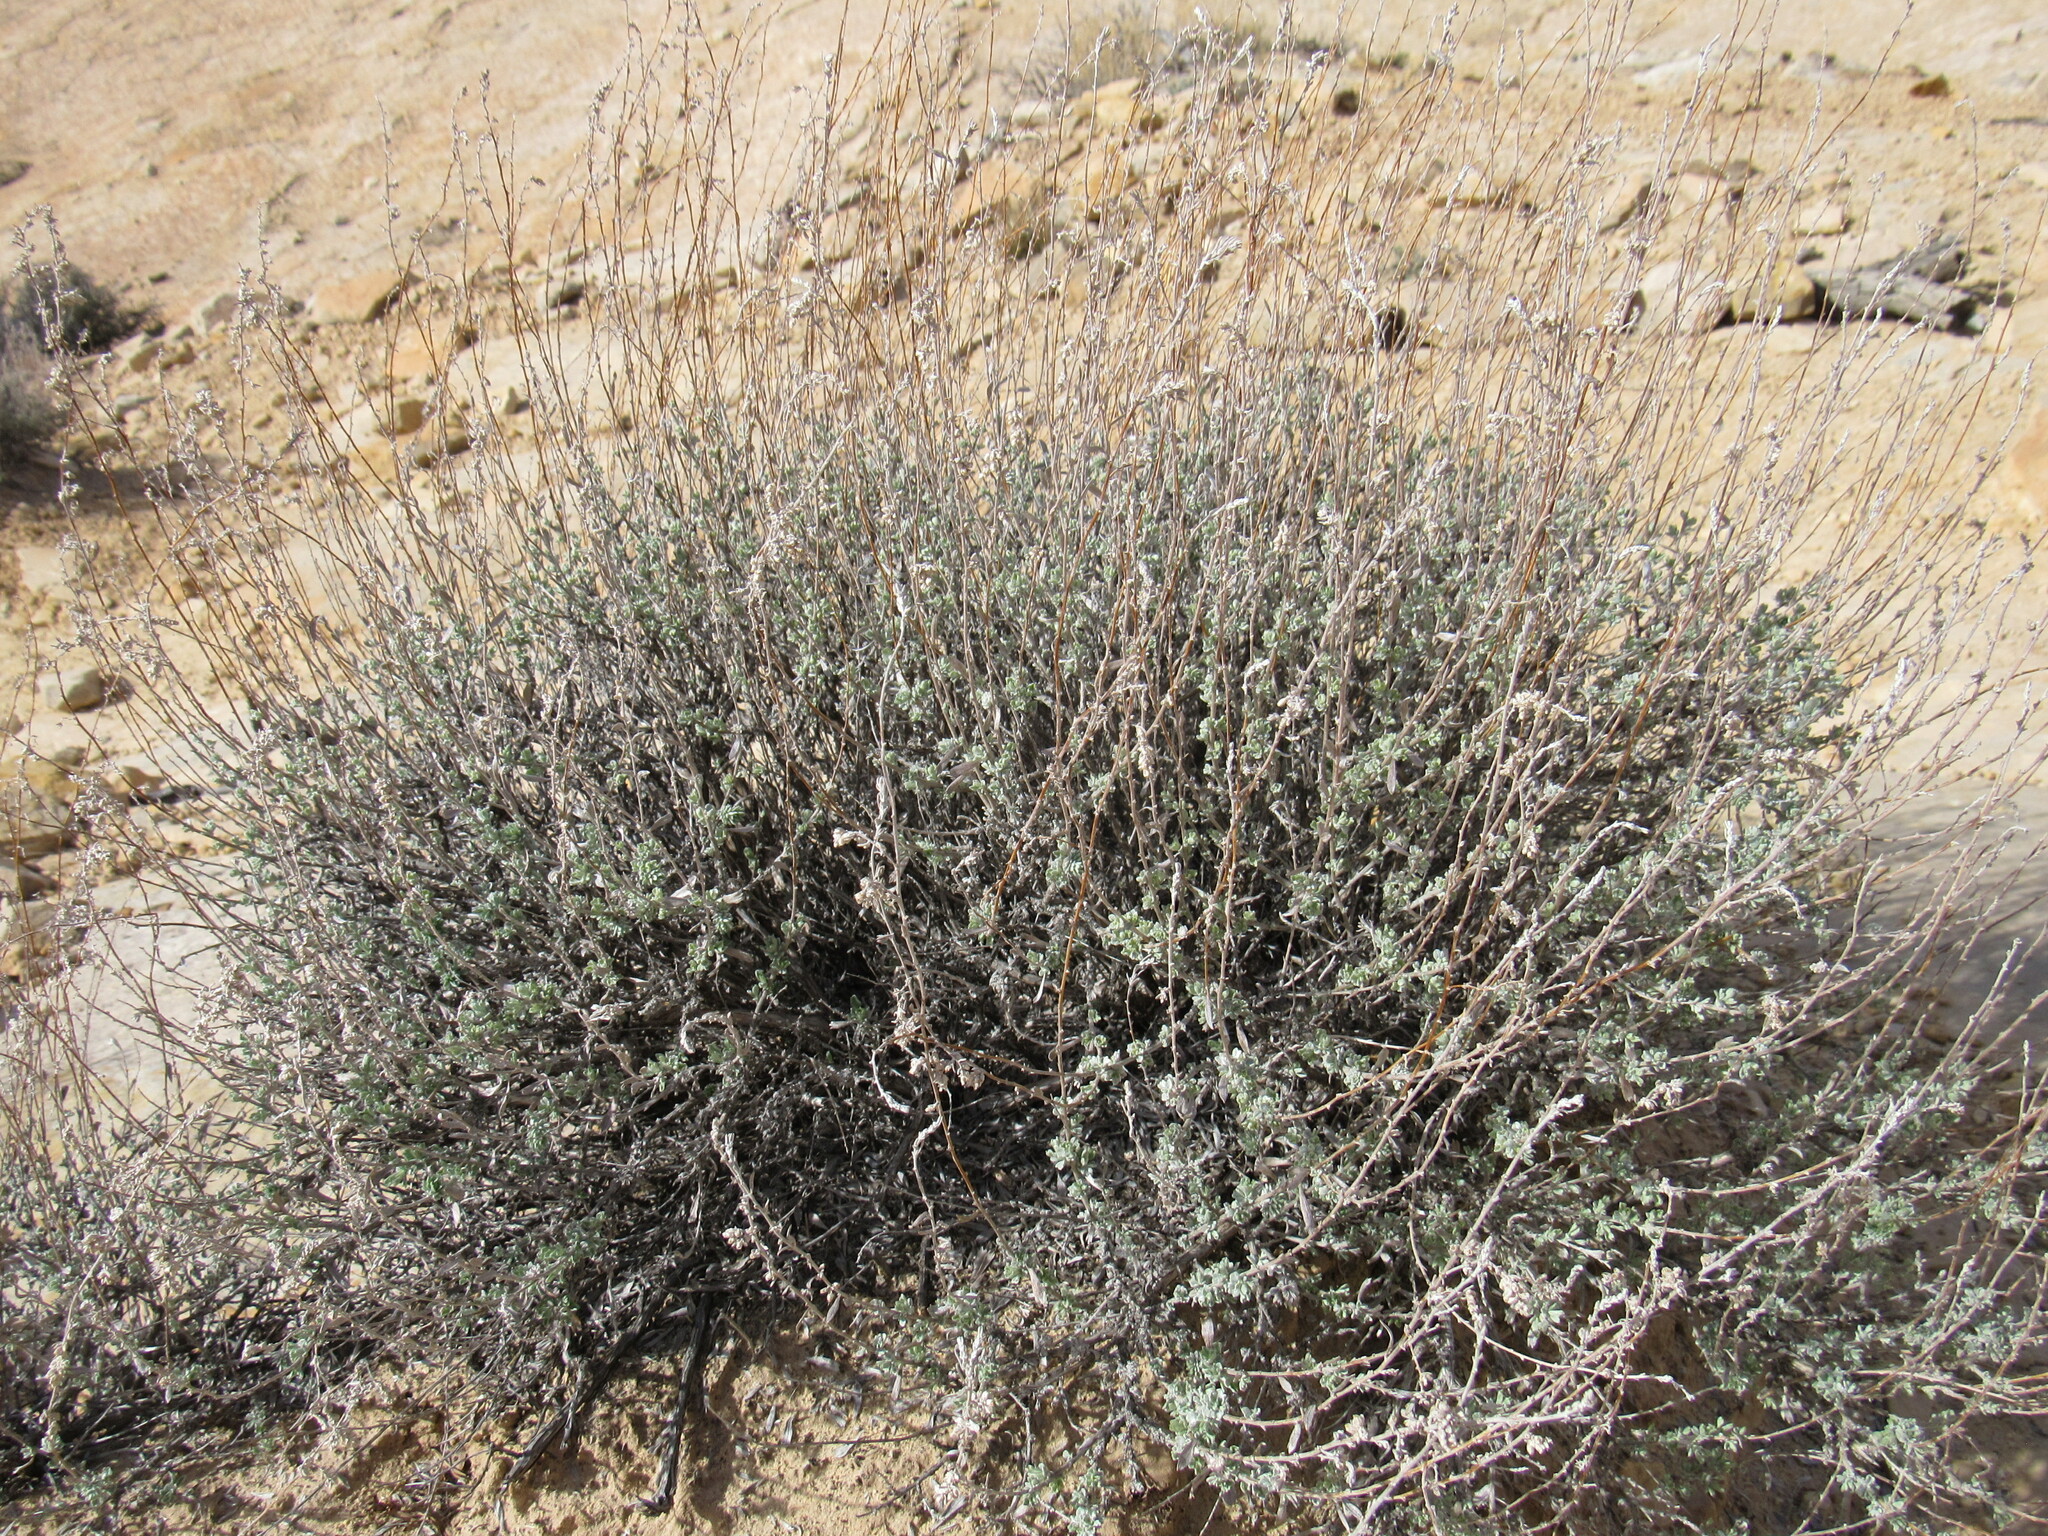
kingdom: Plantae
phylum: Tracheophyta
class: Magnoliopsida
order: Asterales
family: Asteraceae
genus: Artemisia
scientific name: Artemisia bigelovii
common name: Bigelow sagebrush
